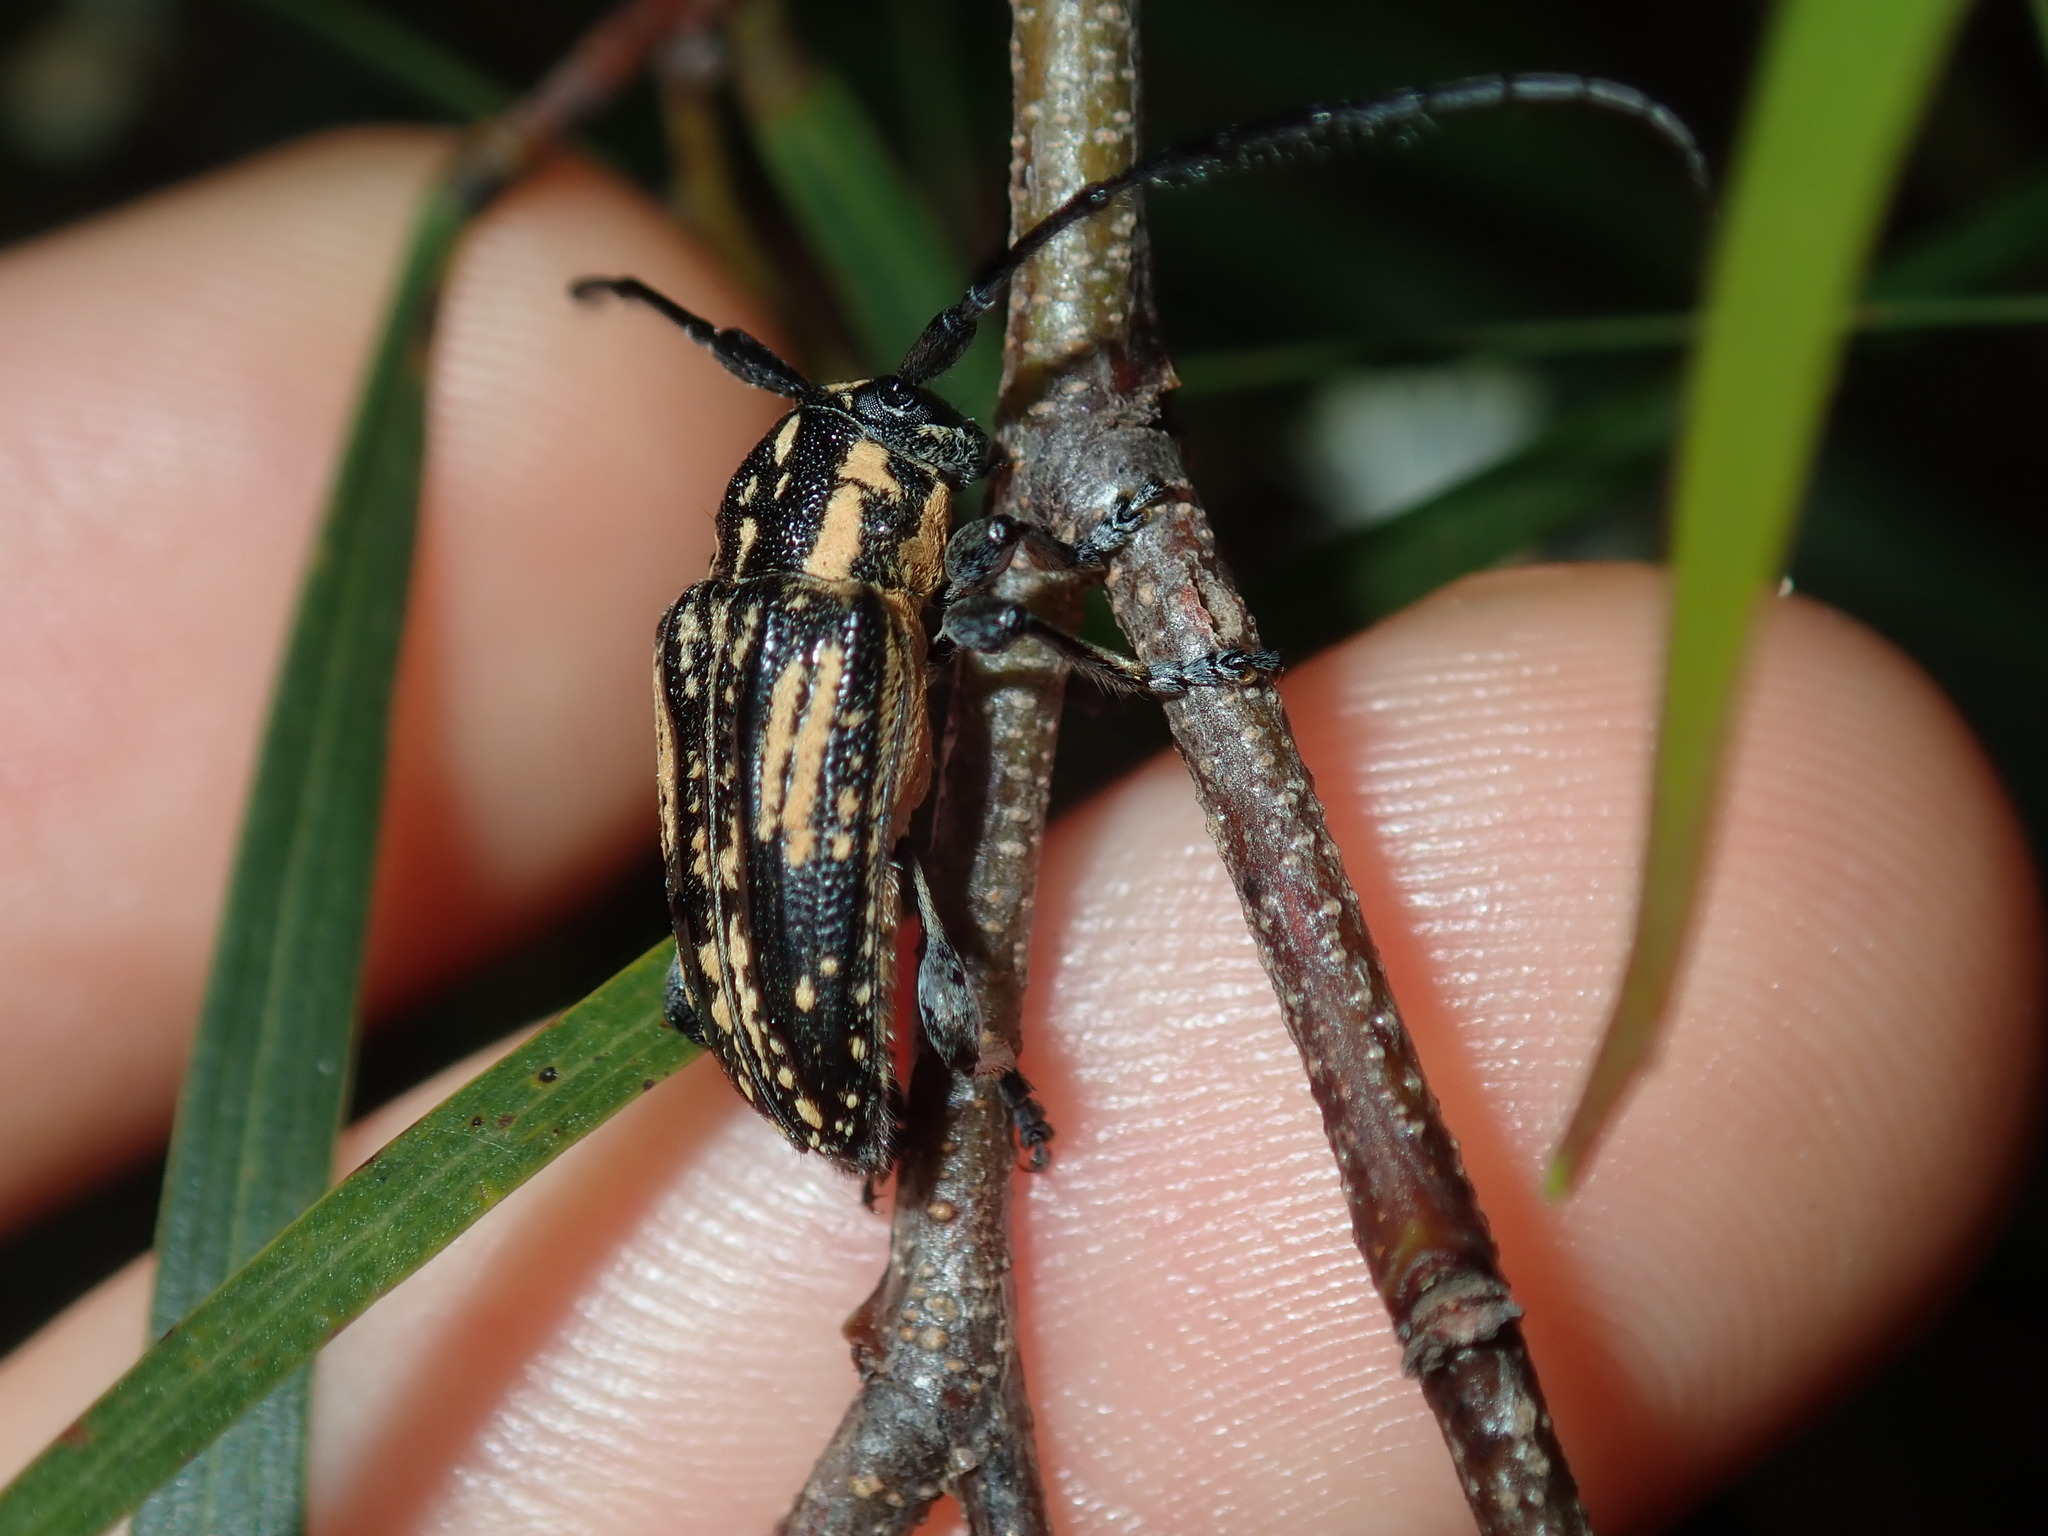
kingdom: Animalia
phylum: Arthropoda
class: Insecta
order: Coleoptera
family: Cerambycidae
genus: Hebecerus
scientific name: Hebecerus crocogaster
